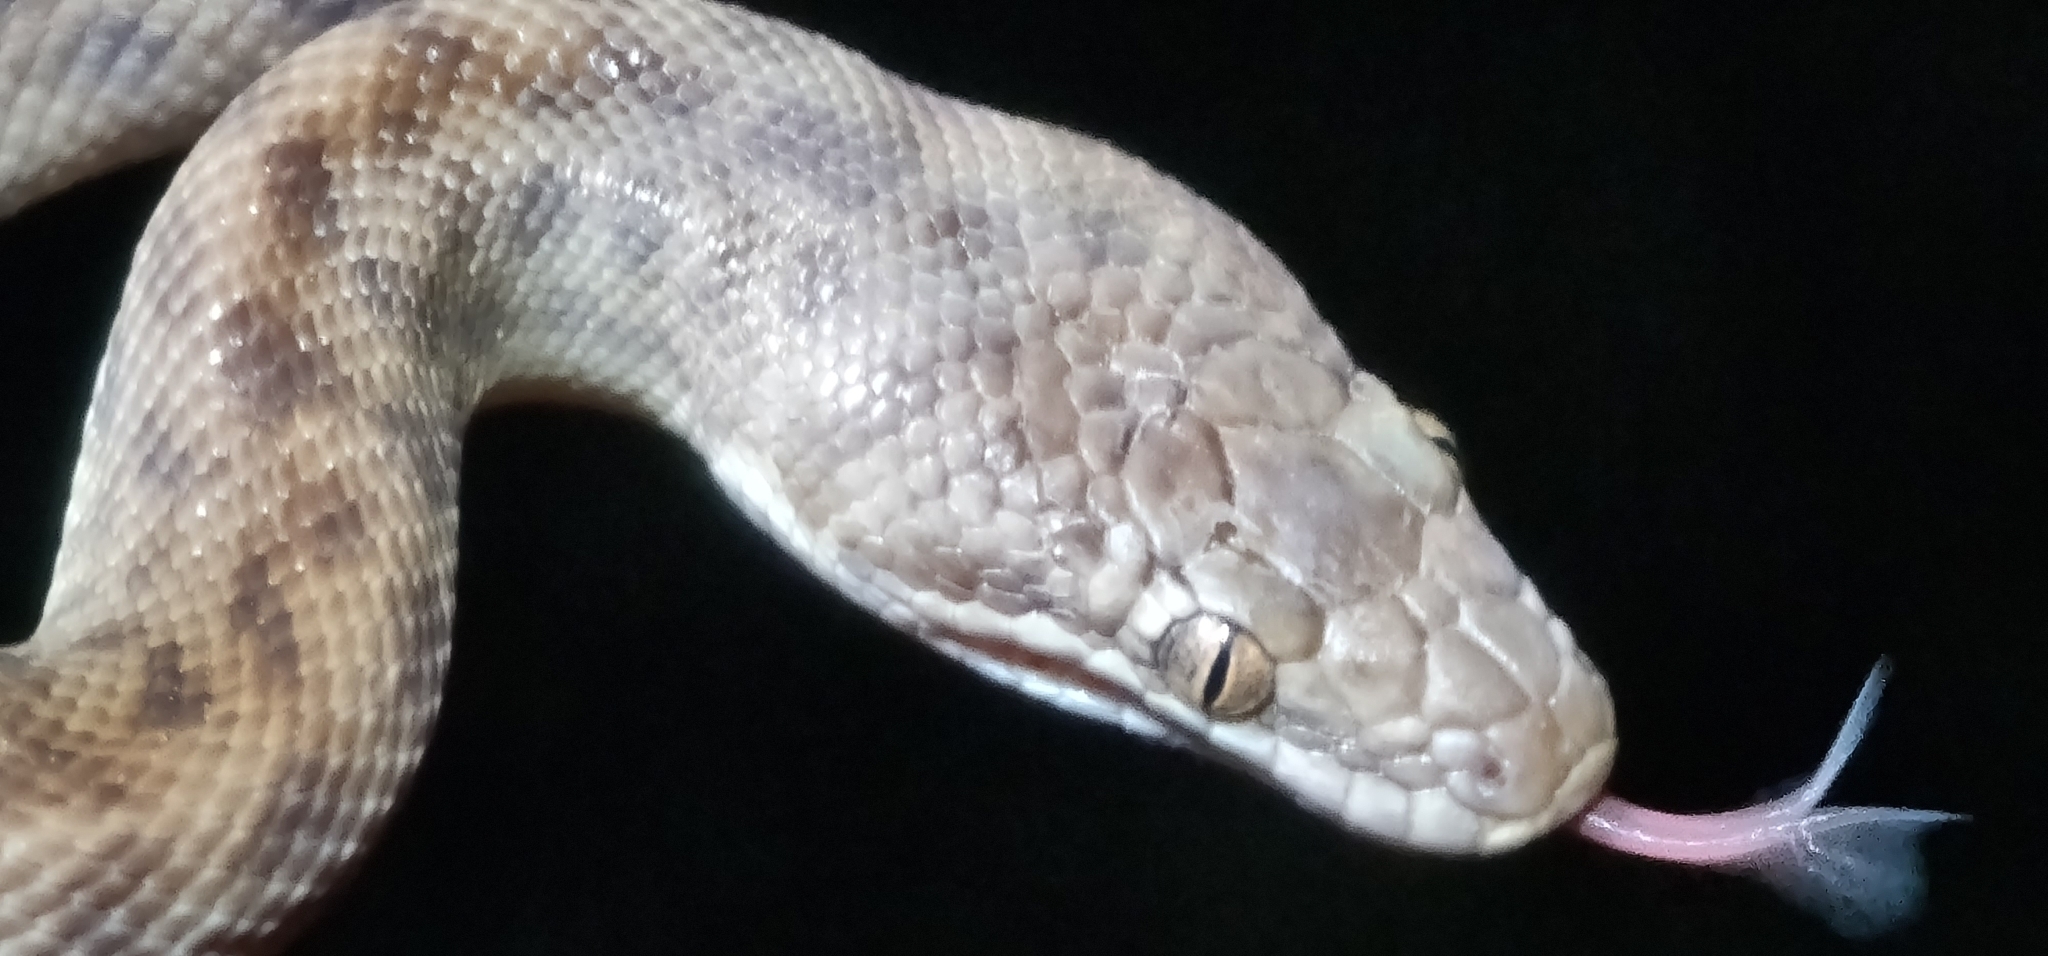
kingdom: Animalia
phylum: Chordata
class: Squamata
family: Pythonidae
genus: Antaresia
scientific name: Antaresia childreni
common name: Children's python
